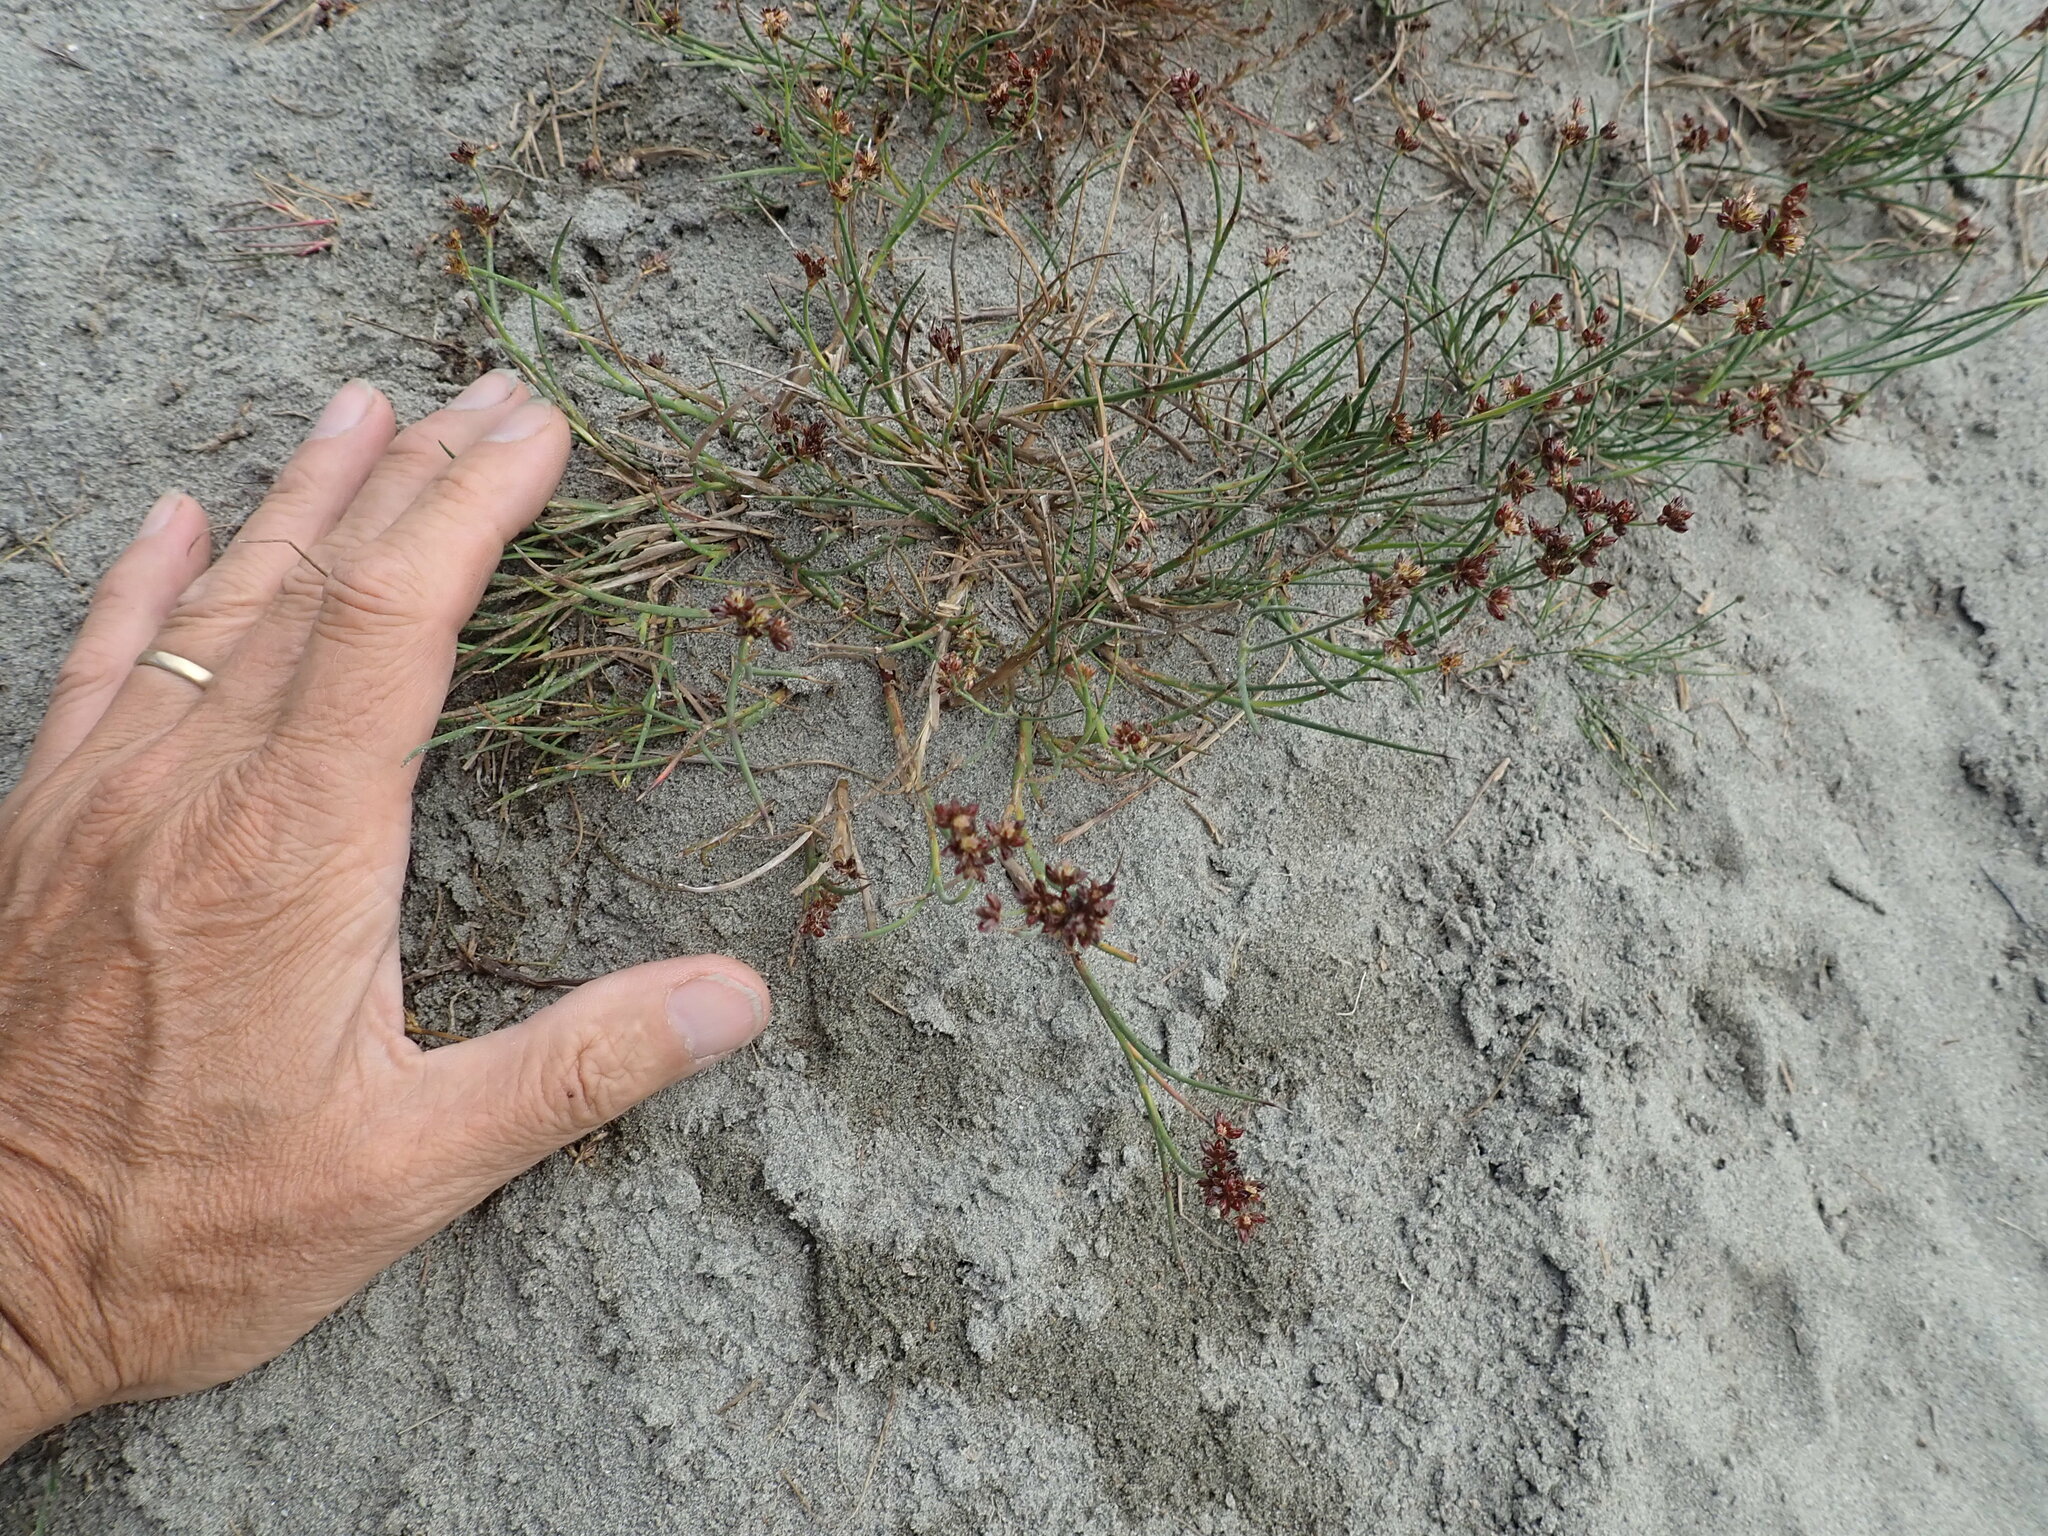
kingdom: Plantae
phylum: Tracheophyta
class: Liliopsida
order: Poales
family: Juncaceae
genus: Juncus
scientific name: Juncus articulatus
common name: Jointed rush
